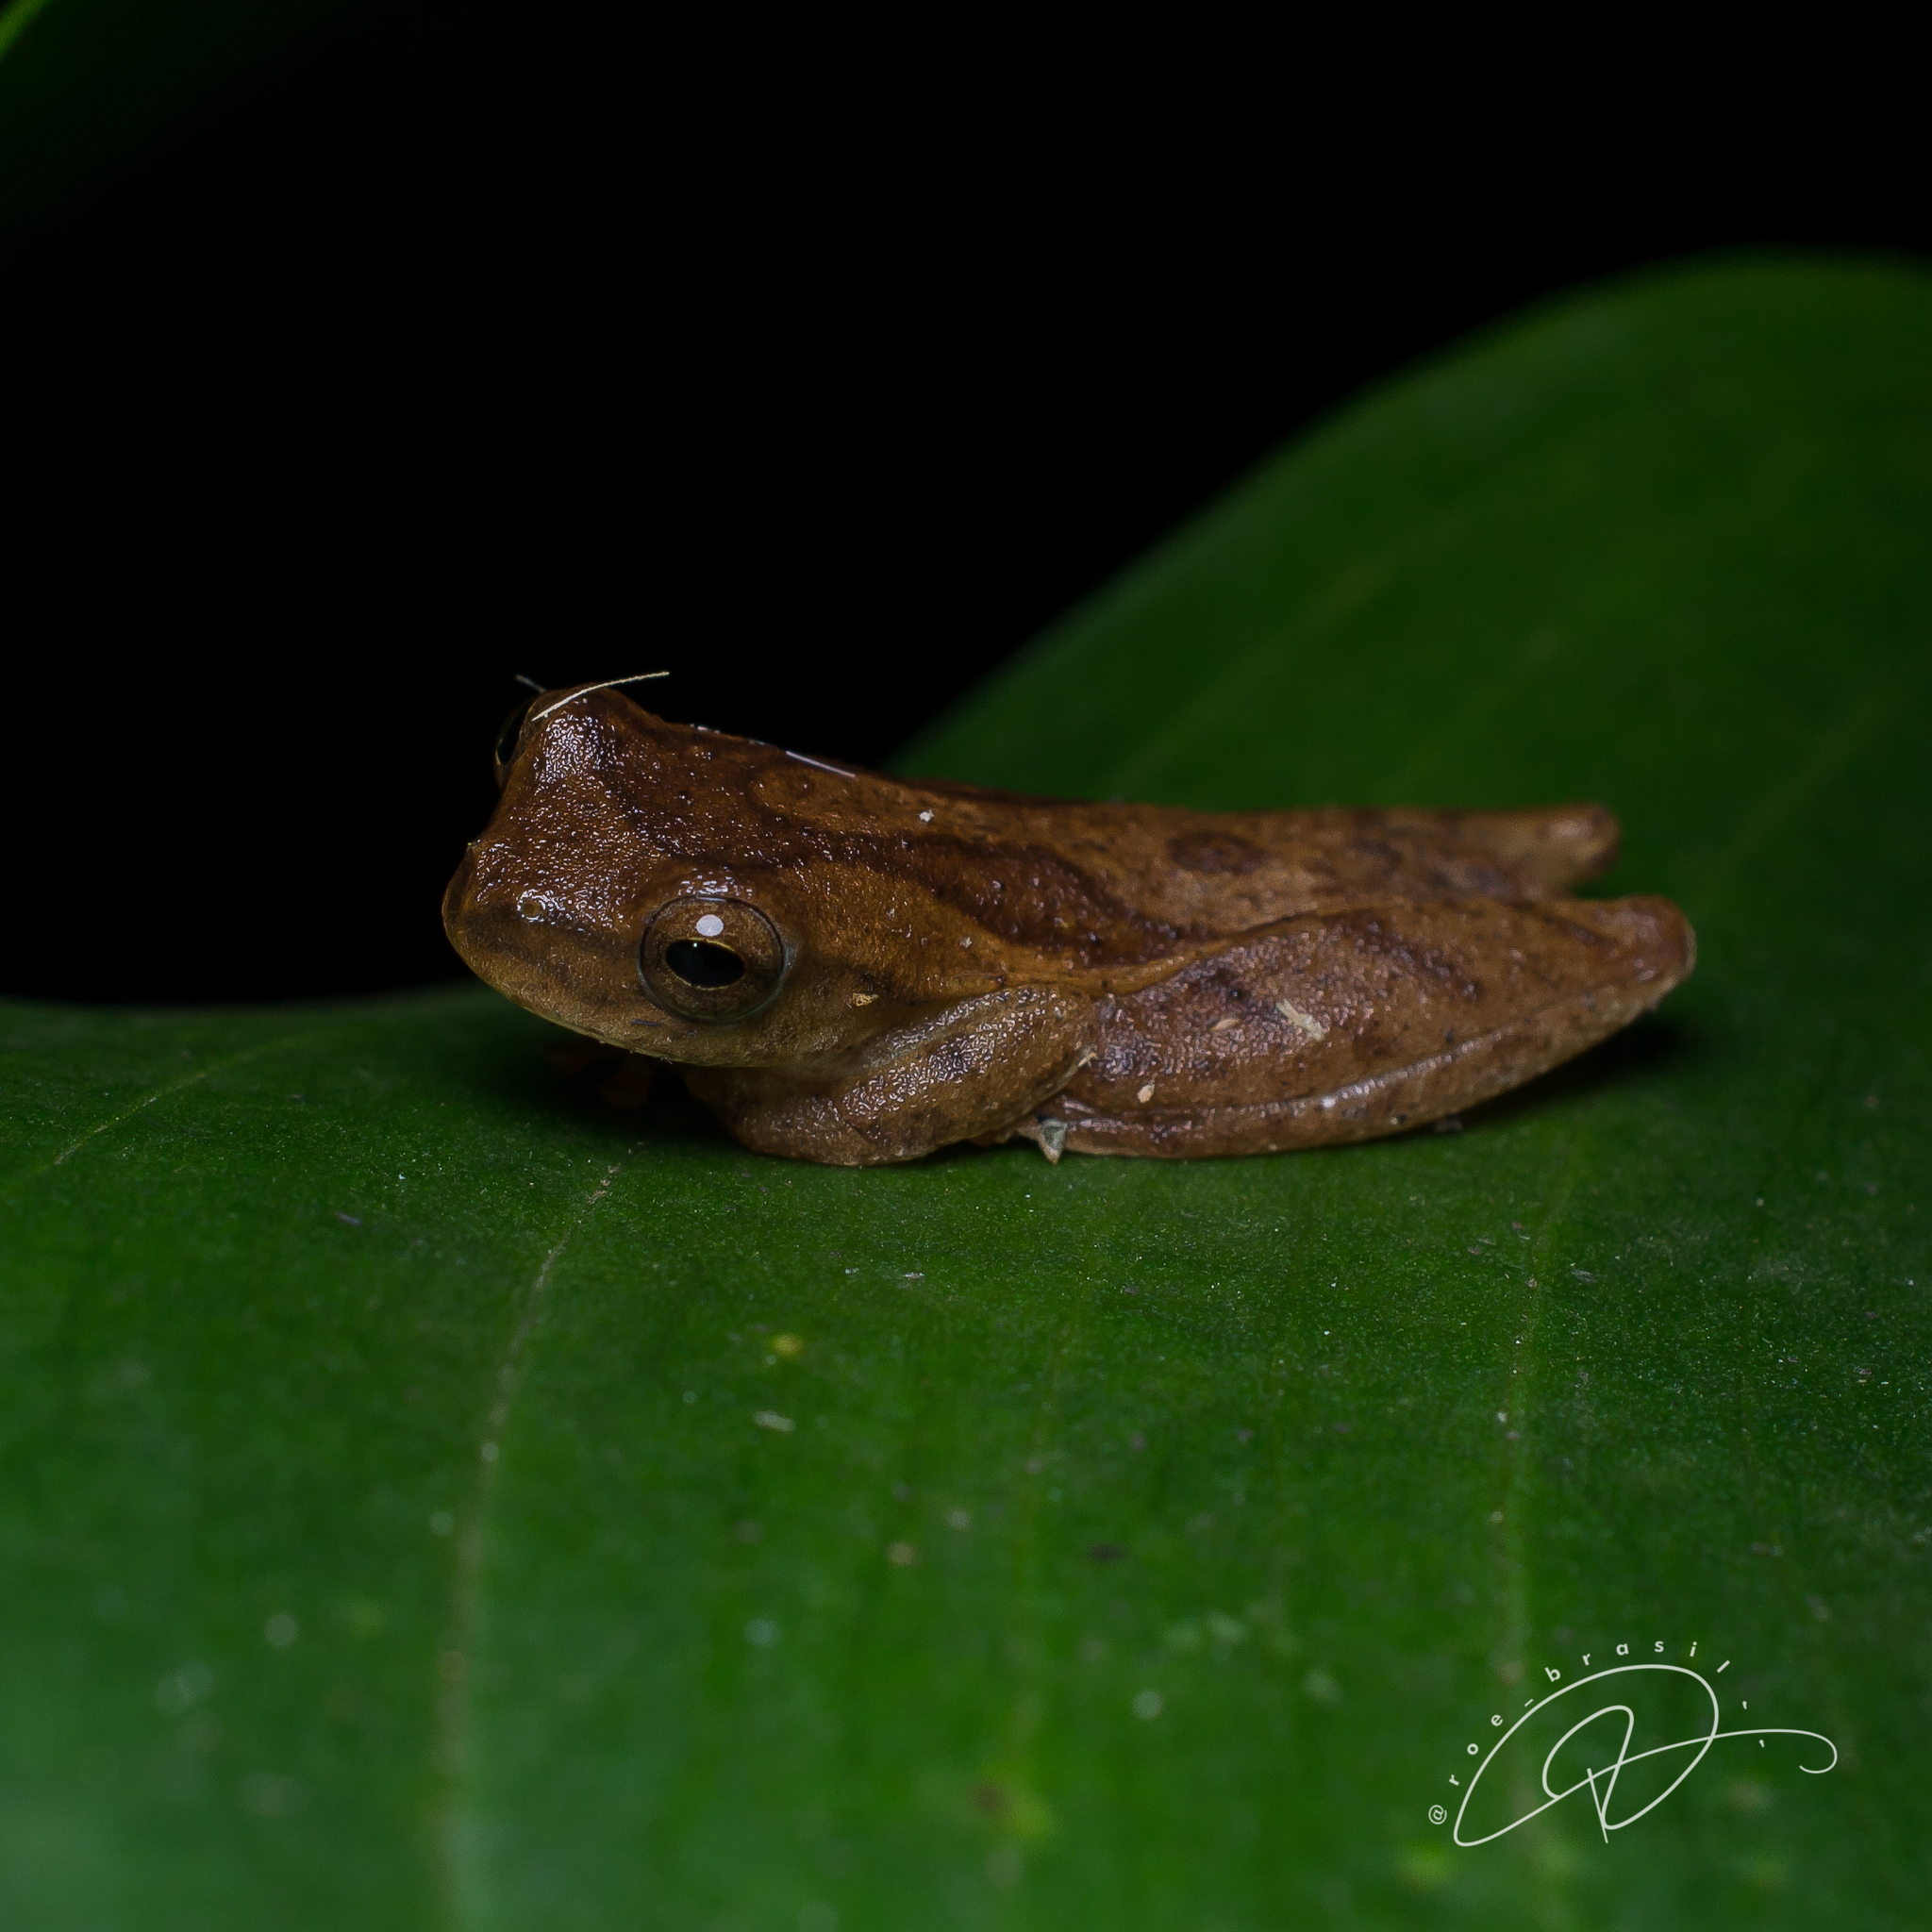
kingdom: Animalia
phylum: Chordata
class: Amphibia
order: Anura
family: Hylidae
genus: Dendropsophus
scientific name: Dendropsophus minutus
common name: Lesser treefrog
